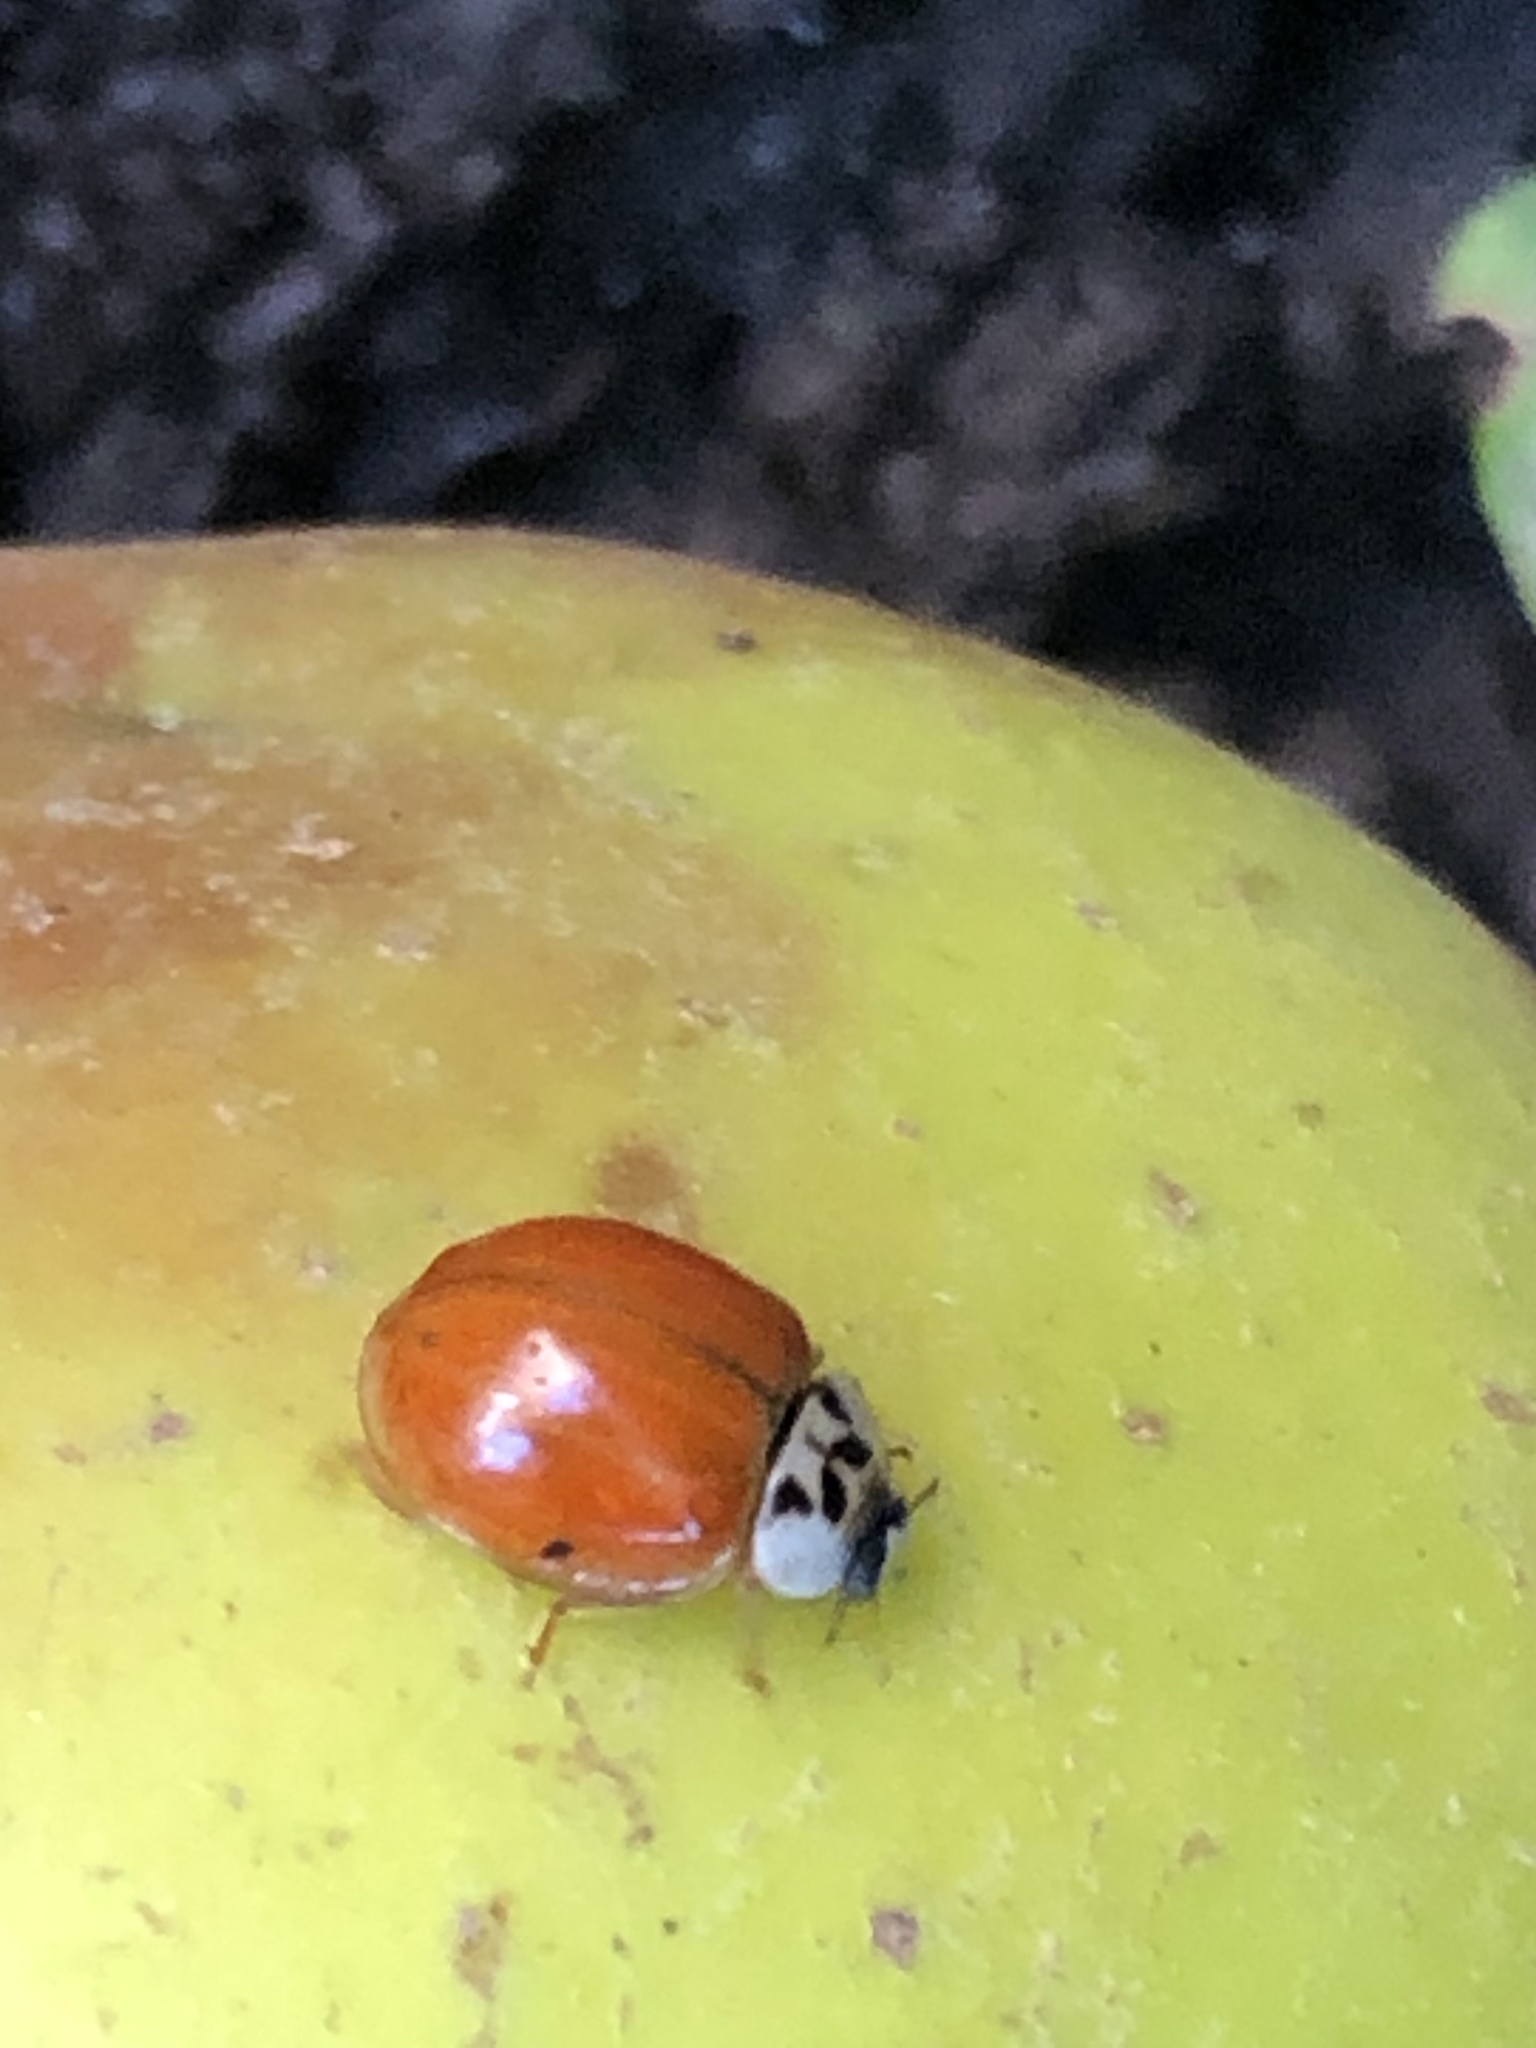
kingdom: Animalia
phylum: Arthropoda
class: Insecta
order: Coleoptera
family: Coccinellidae
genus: Harmonia
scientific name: Harmonia axyridis
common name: Harlequin ladybird
